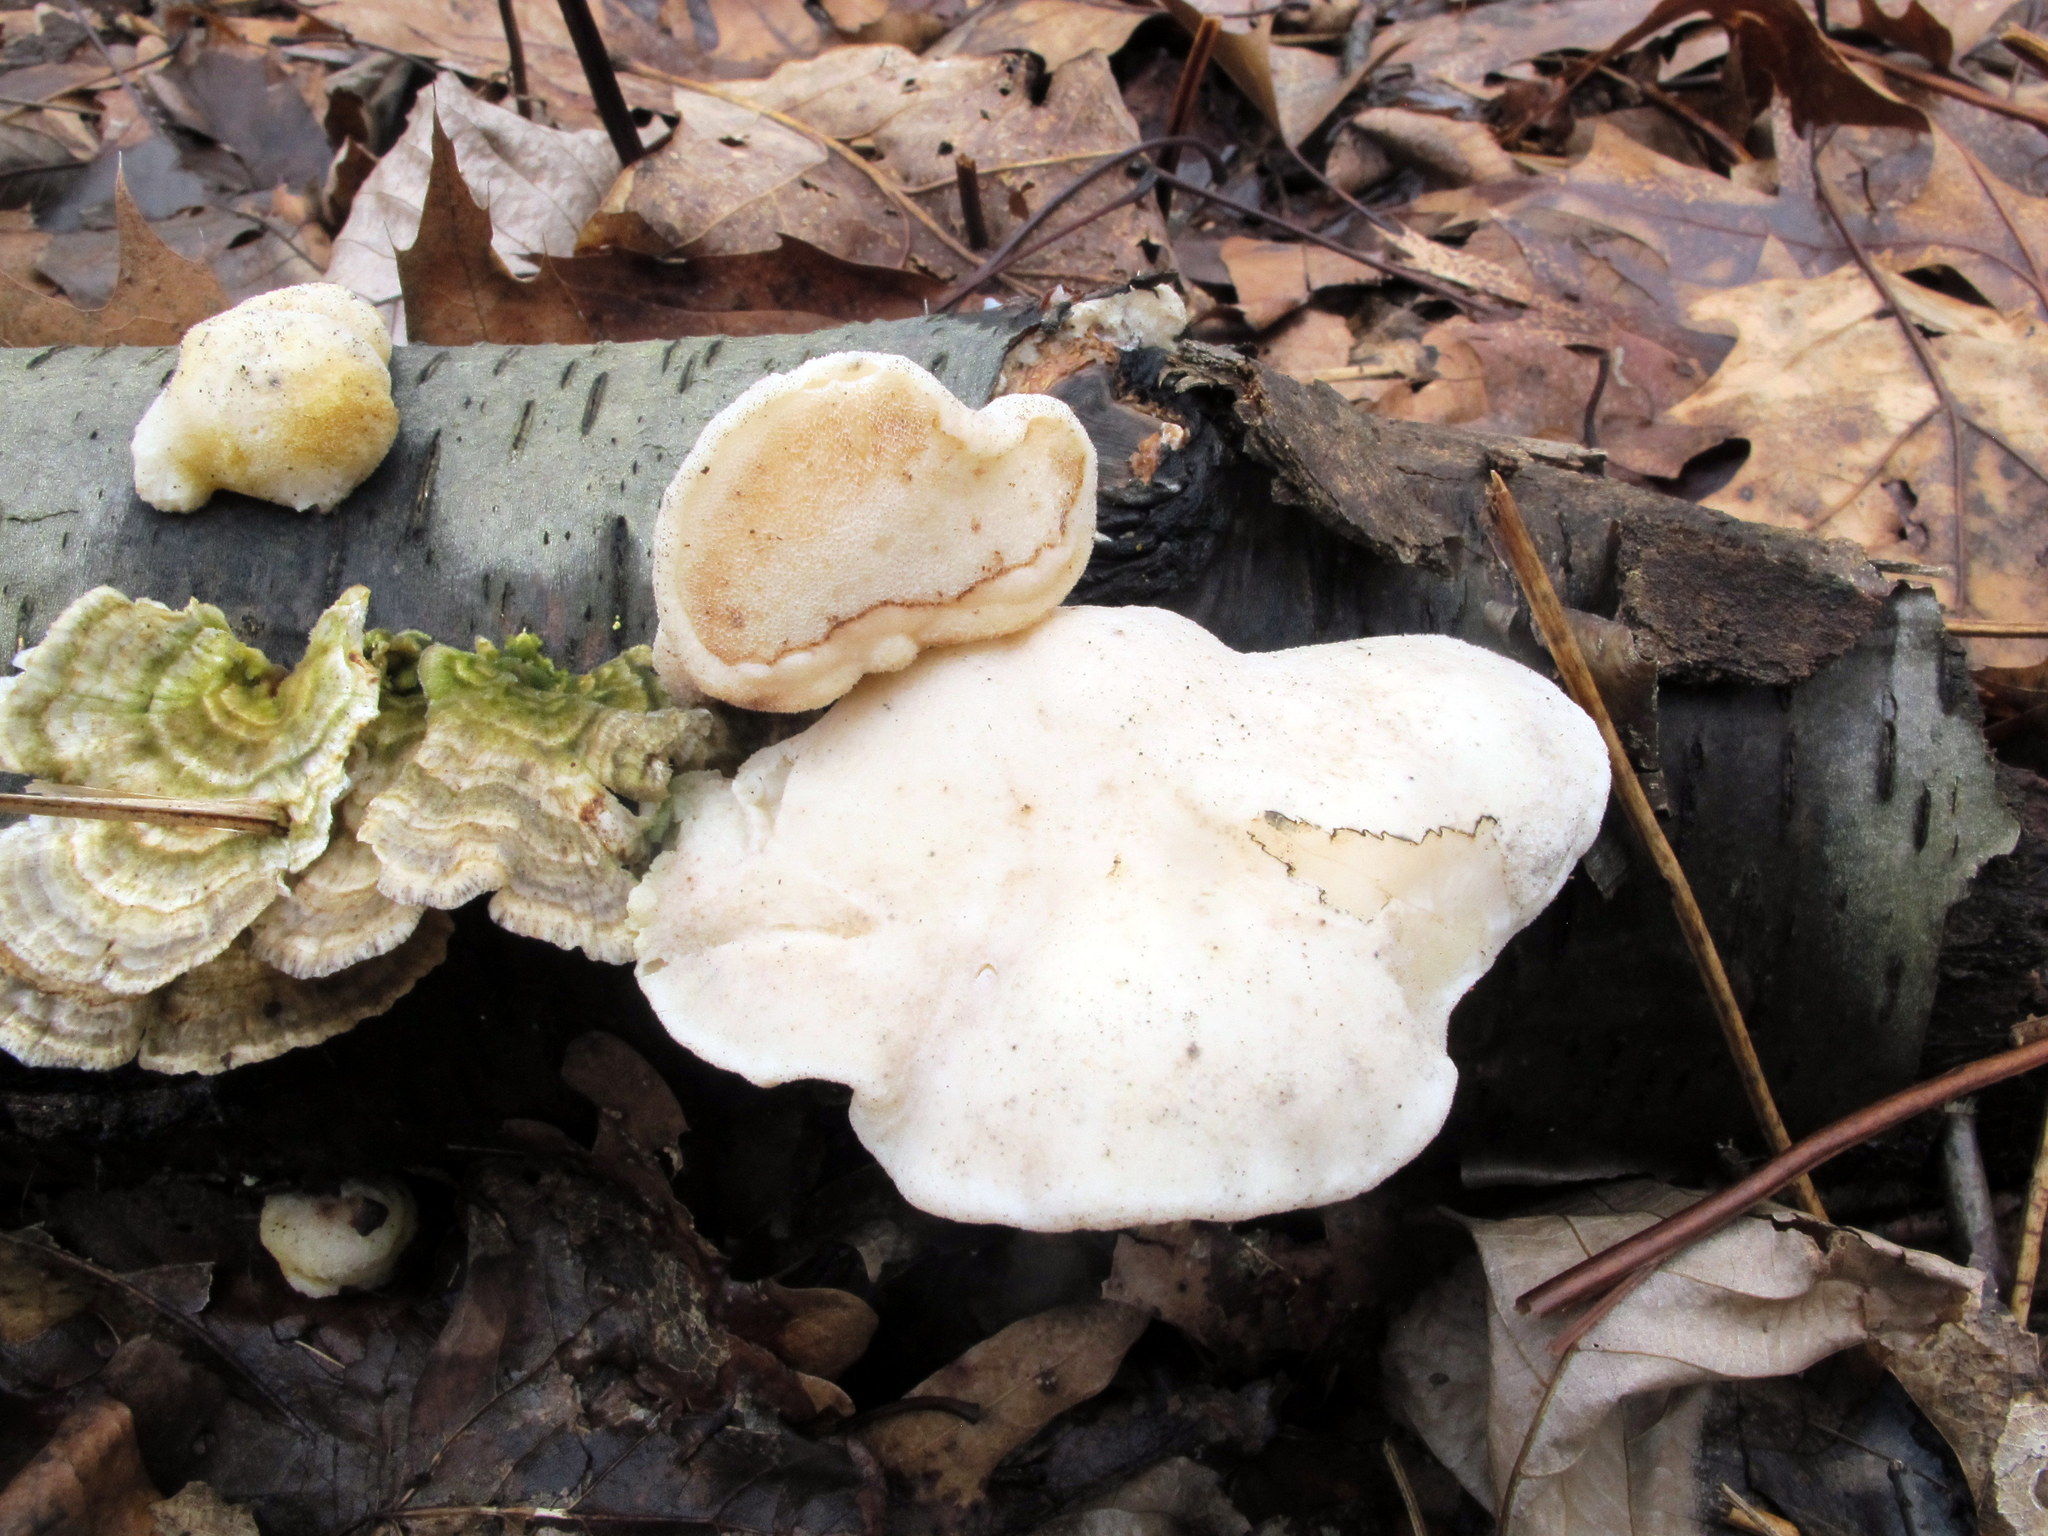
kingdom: Fungi
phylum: Basidiomycota
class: Agaricomycetes
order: Polyporales
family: Incrustoporiaceae
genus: Tyromyces
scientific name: Tyromyces chioneus
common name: White cheese polypore
